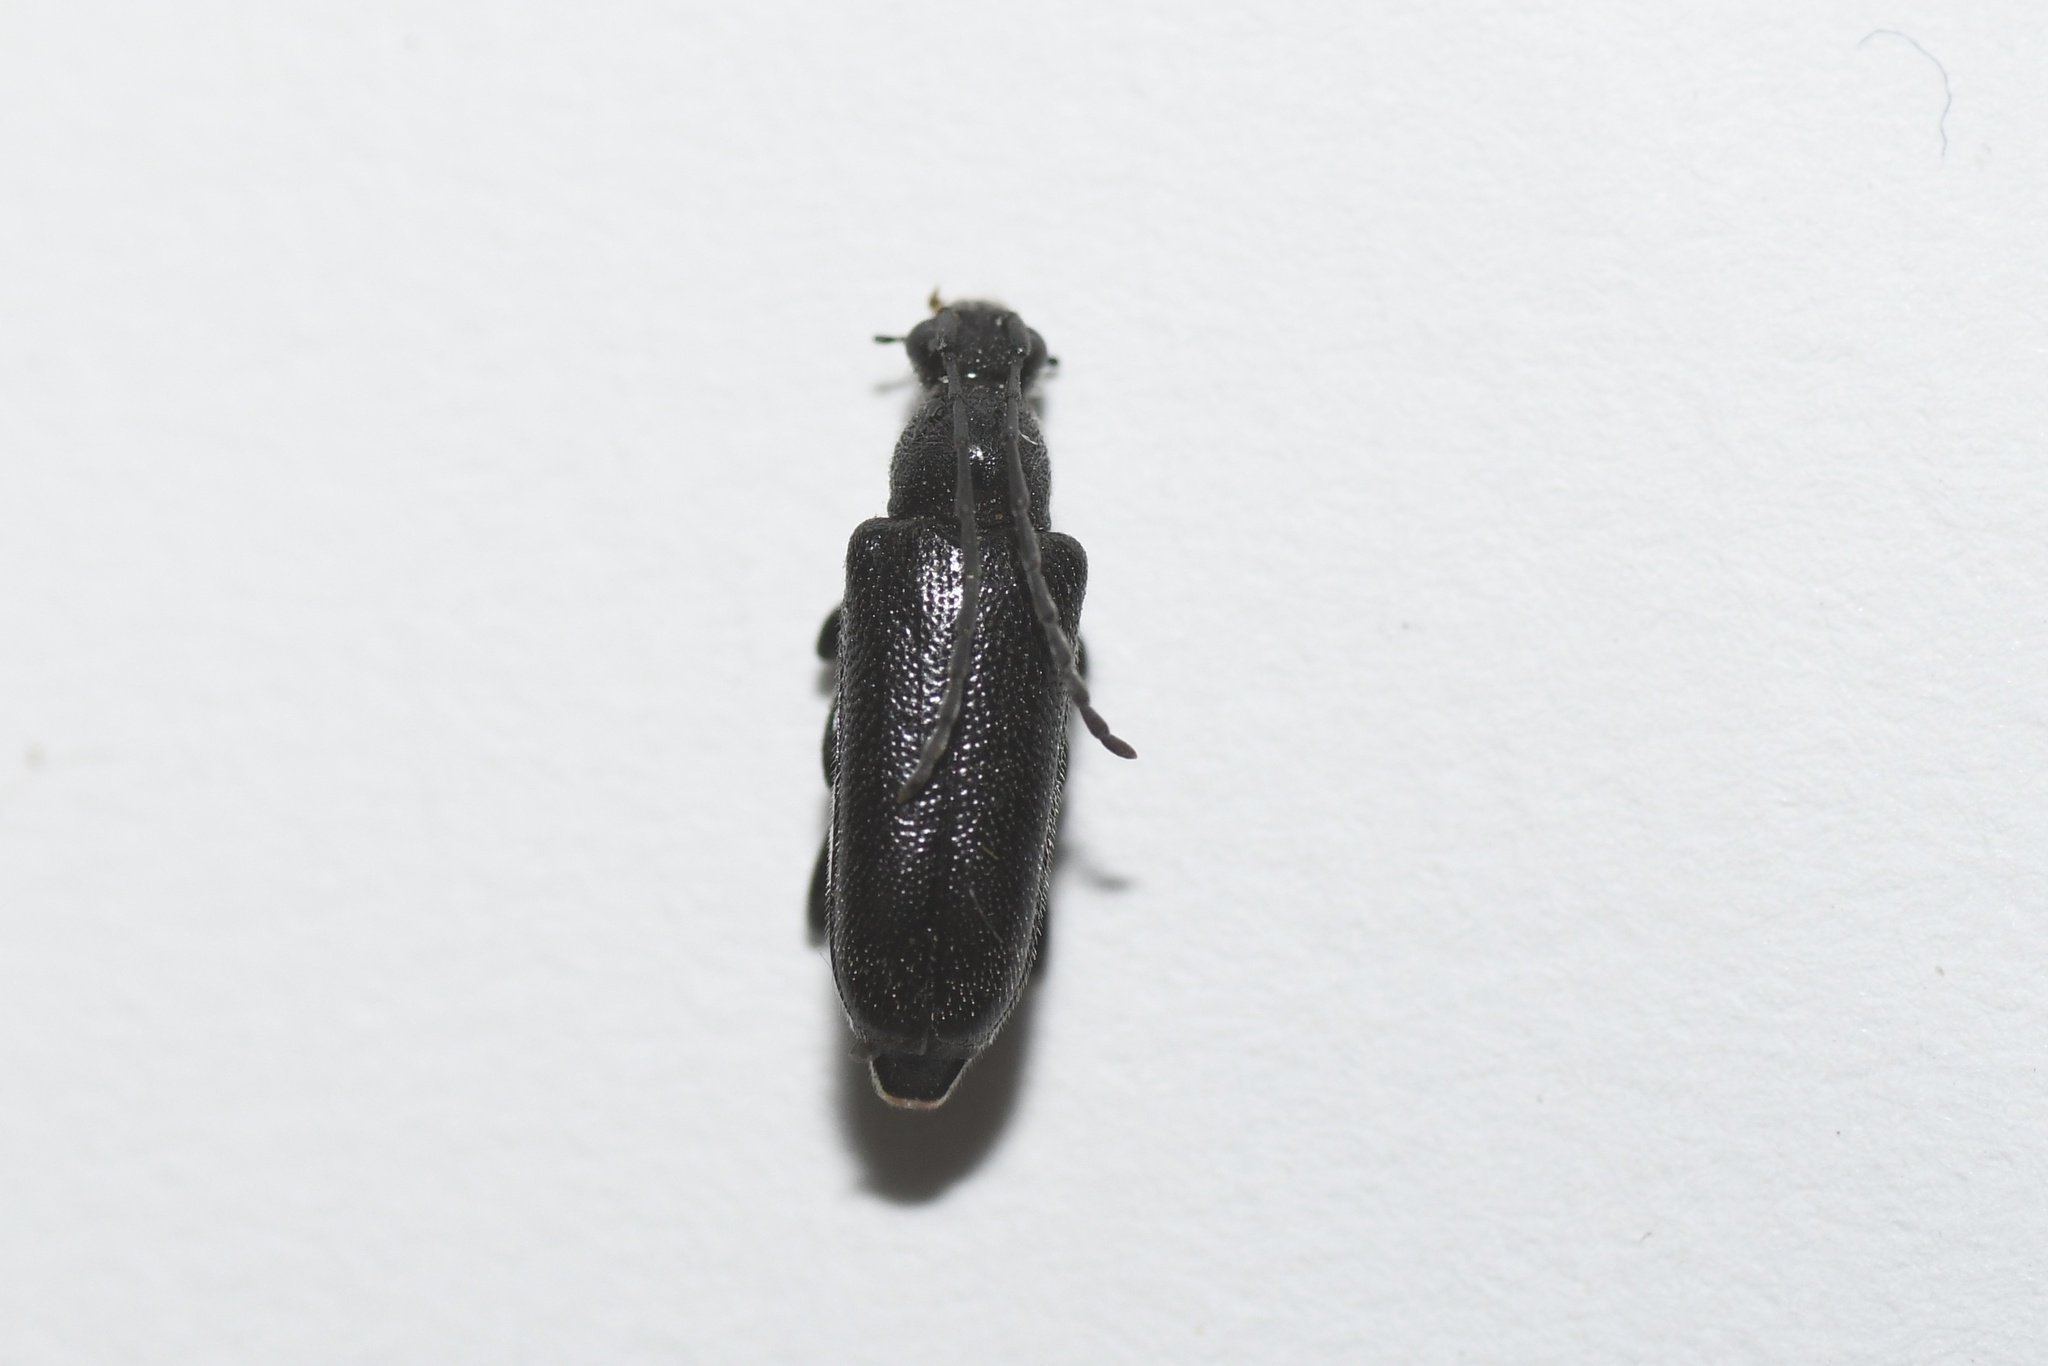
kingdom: Animalia
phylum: Arthropoda
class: Insecta
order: Coleoptera
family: Cerambycidae
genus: Anoplodera
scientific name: Anoplodera pubera
